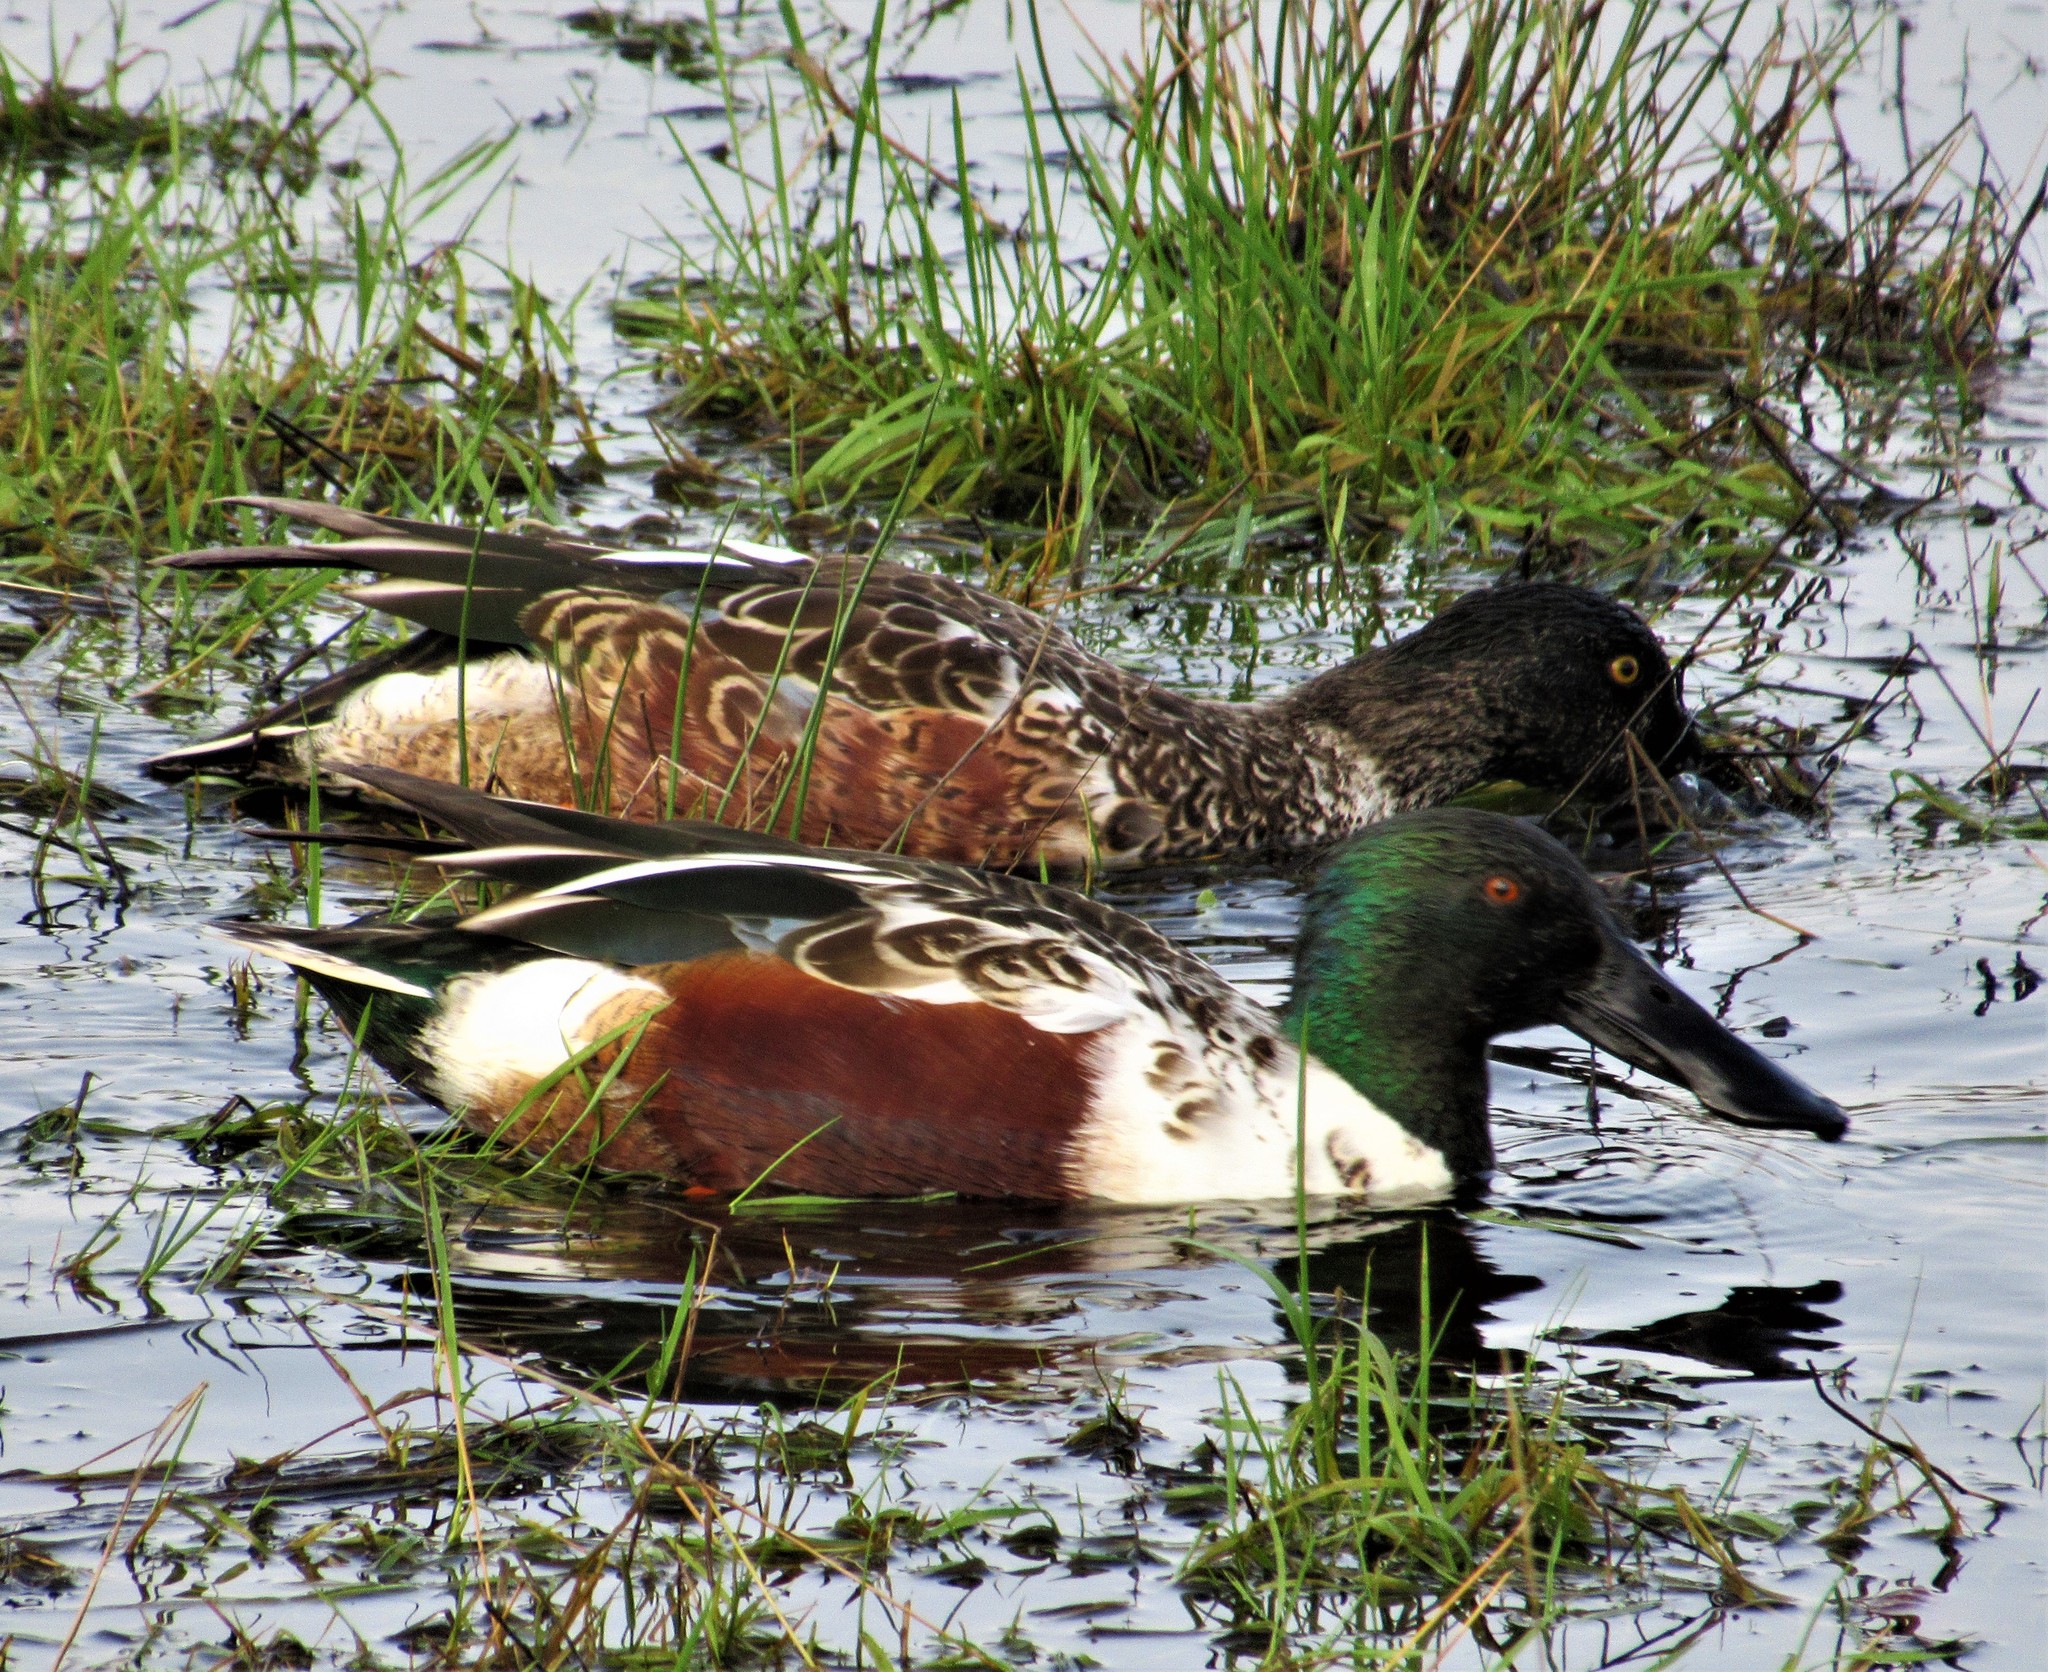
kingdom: Animalia
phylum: Chordata
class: Aves
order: Anseriformes
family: Anatidae
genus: Spatula
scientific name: Spatula clypeata
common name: Northern shoveler
